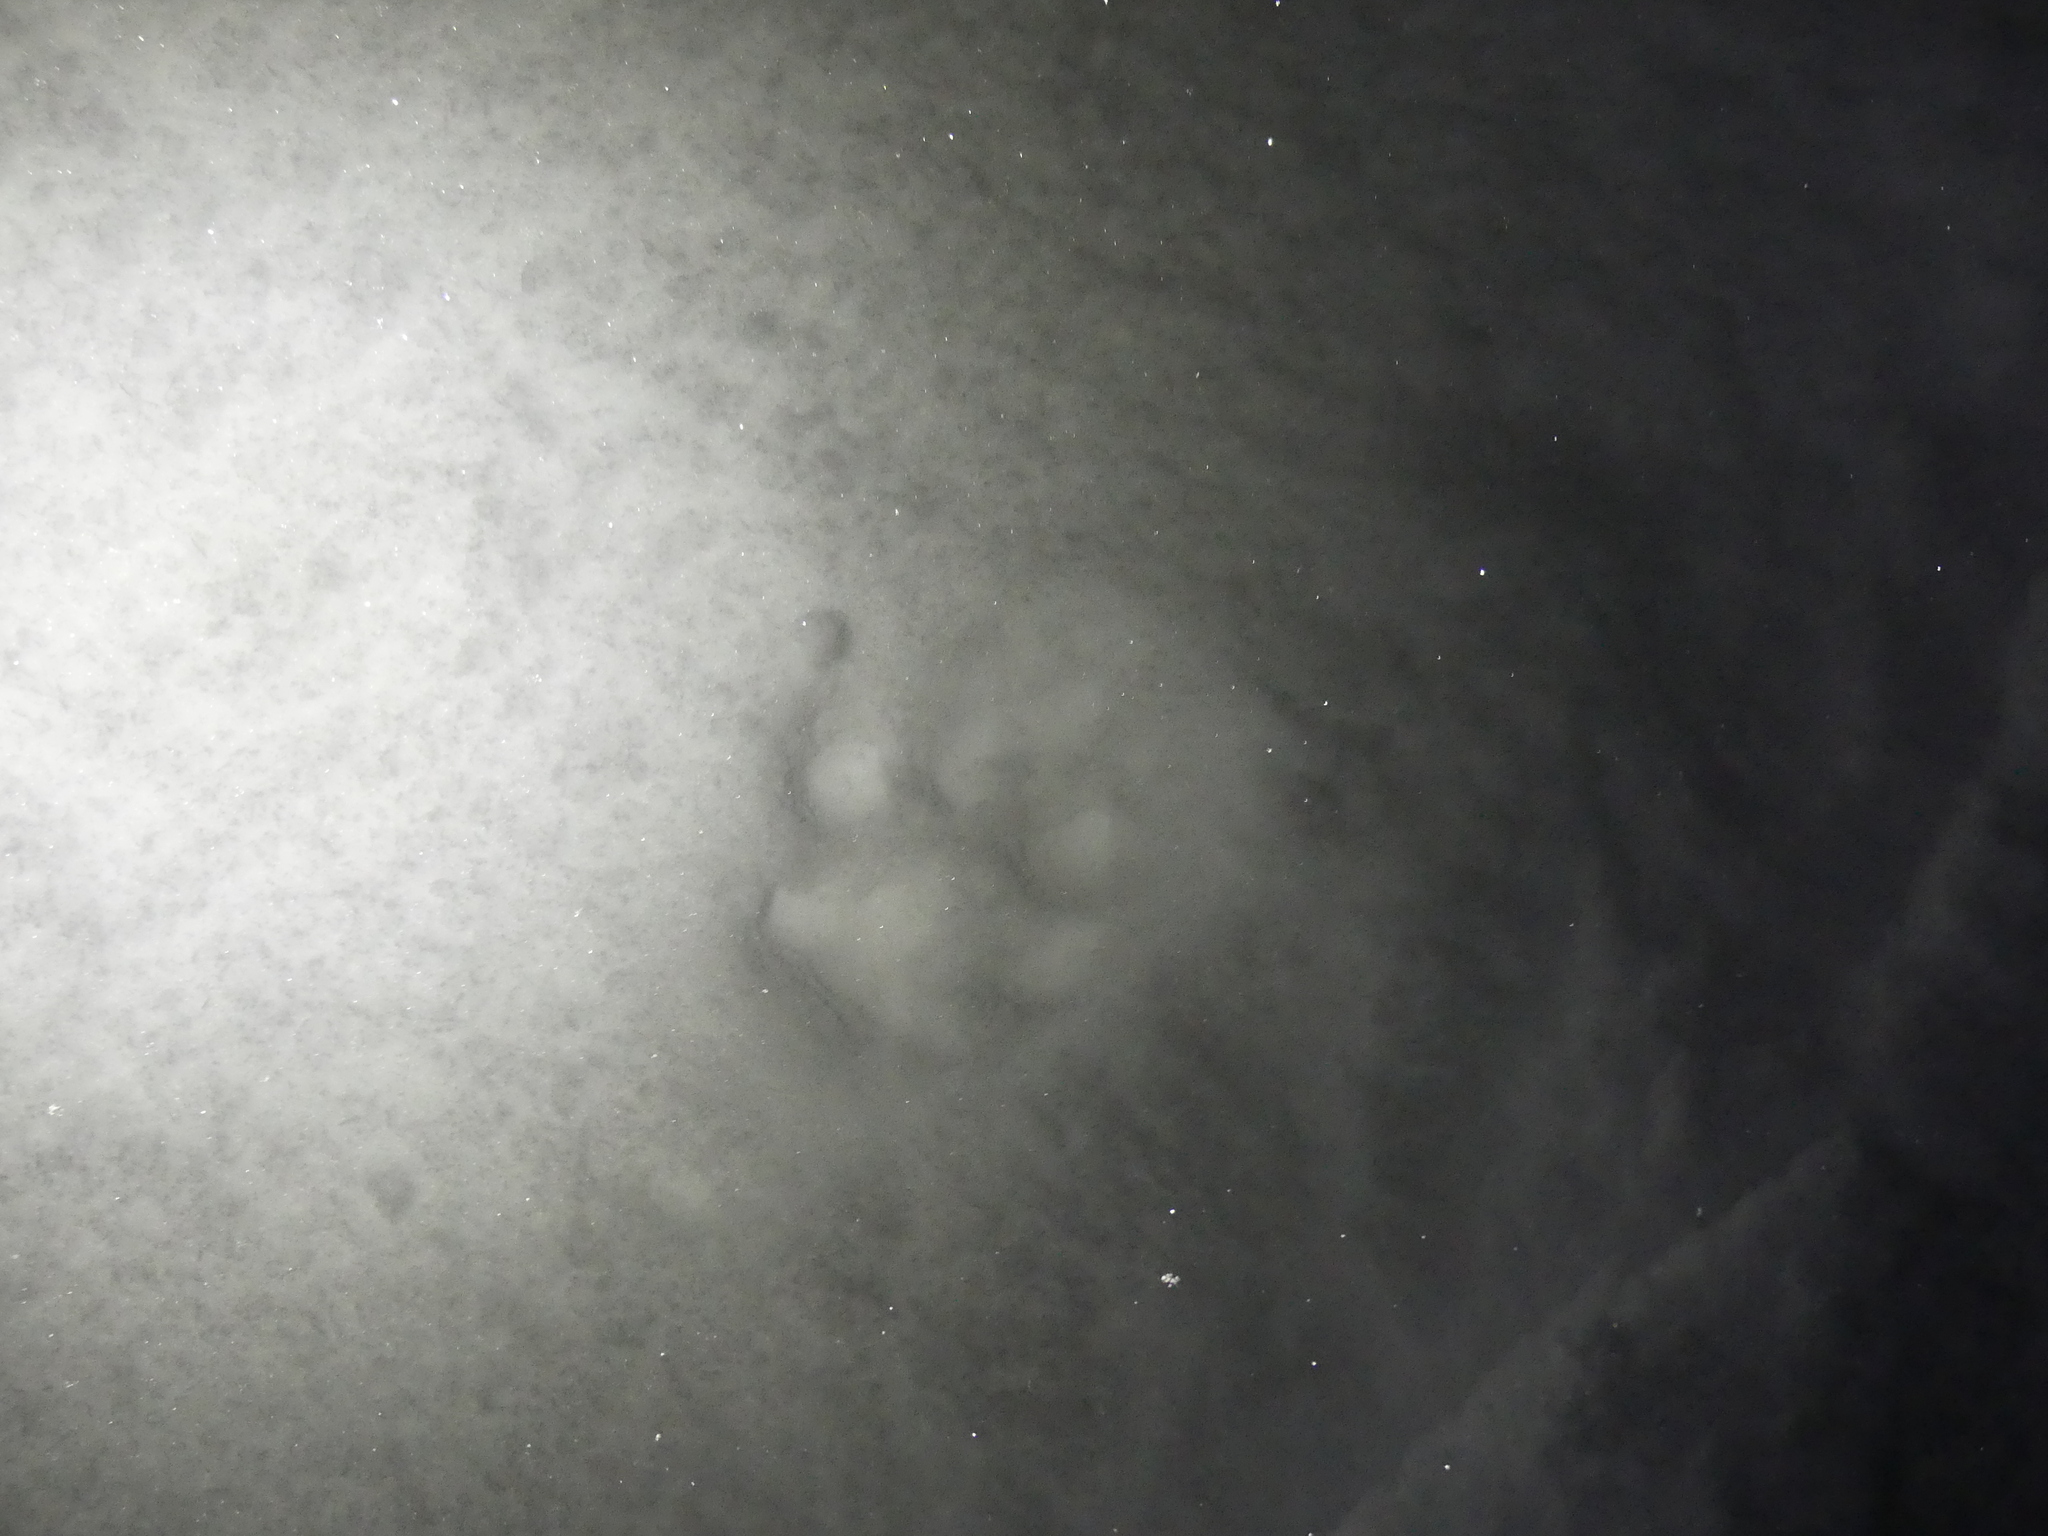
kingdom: Animalia
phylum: Chordata
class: Mammalia
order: Carnivora
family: Felidae
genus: Lynx
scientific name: Lynx lynx
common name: Eurasian lynx
